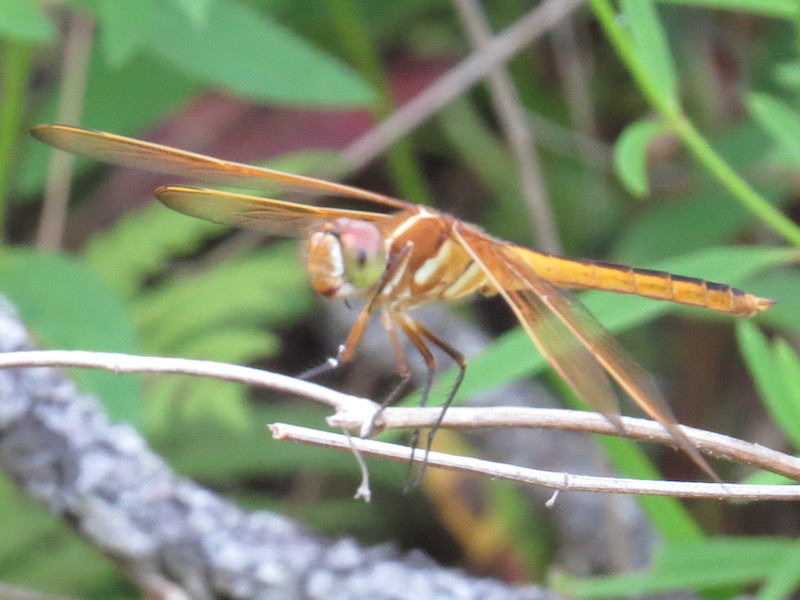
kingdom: Animalia
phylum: Arthropoda
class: Insecta
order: Odonata
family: Libellulidae
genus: Libellula
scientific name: Libellula auripennis
